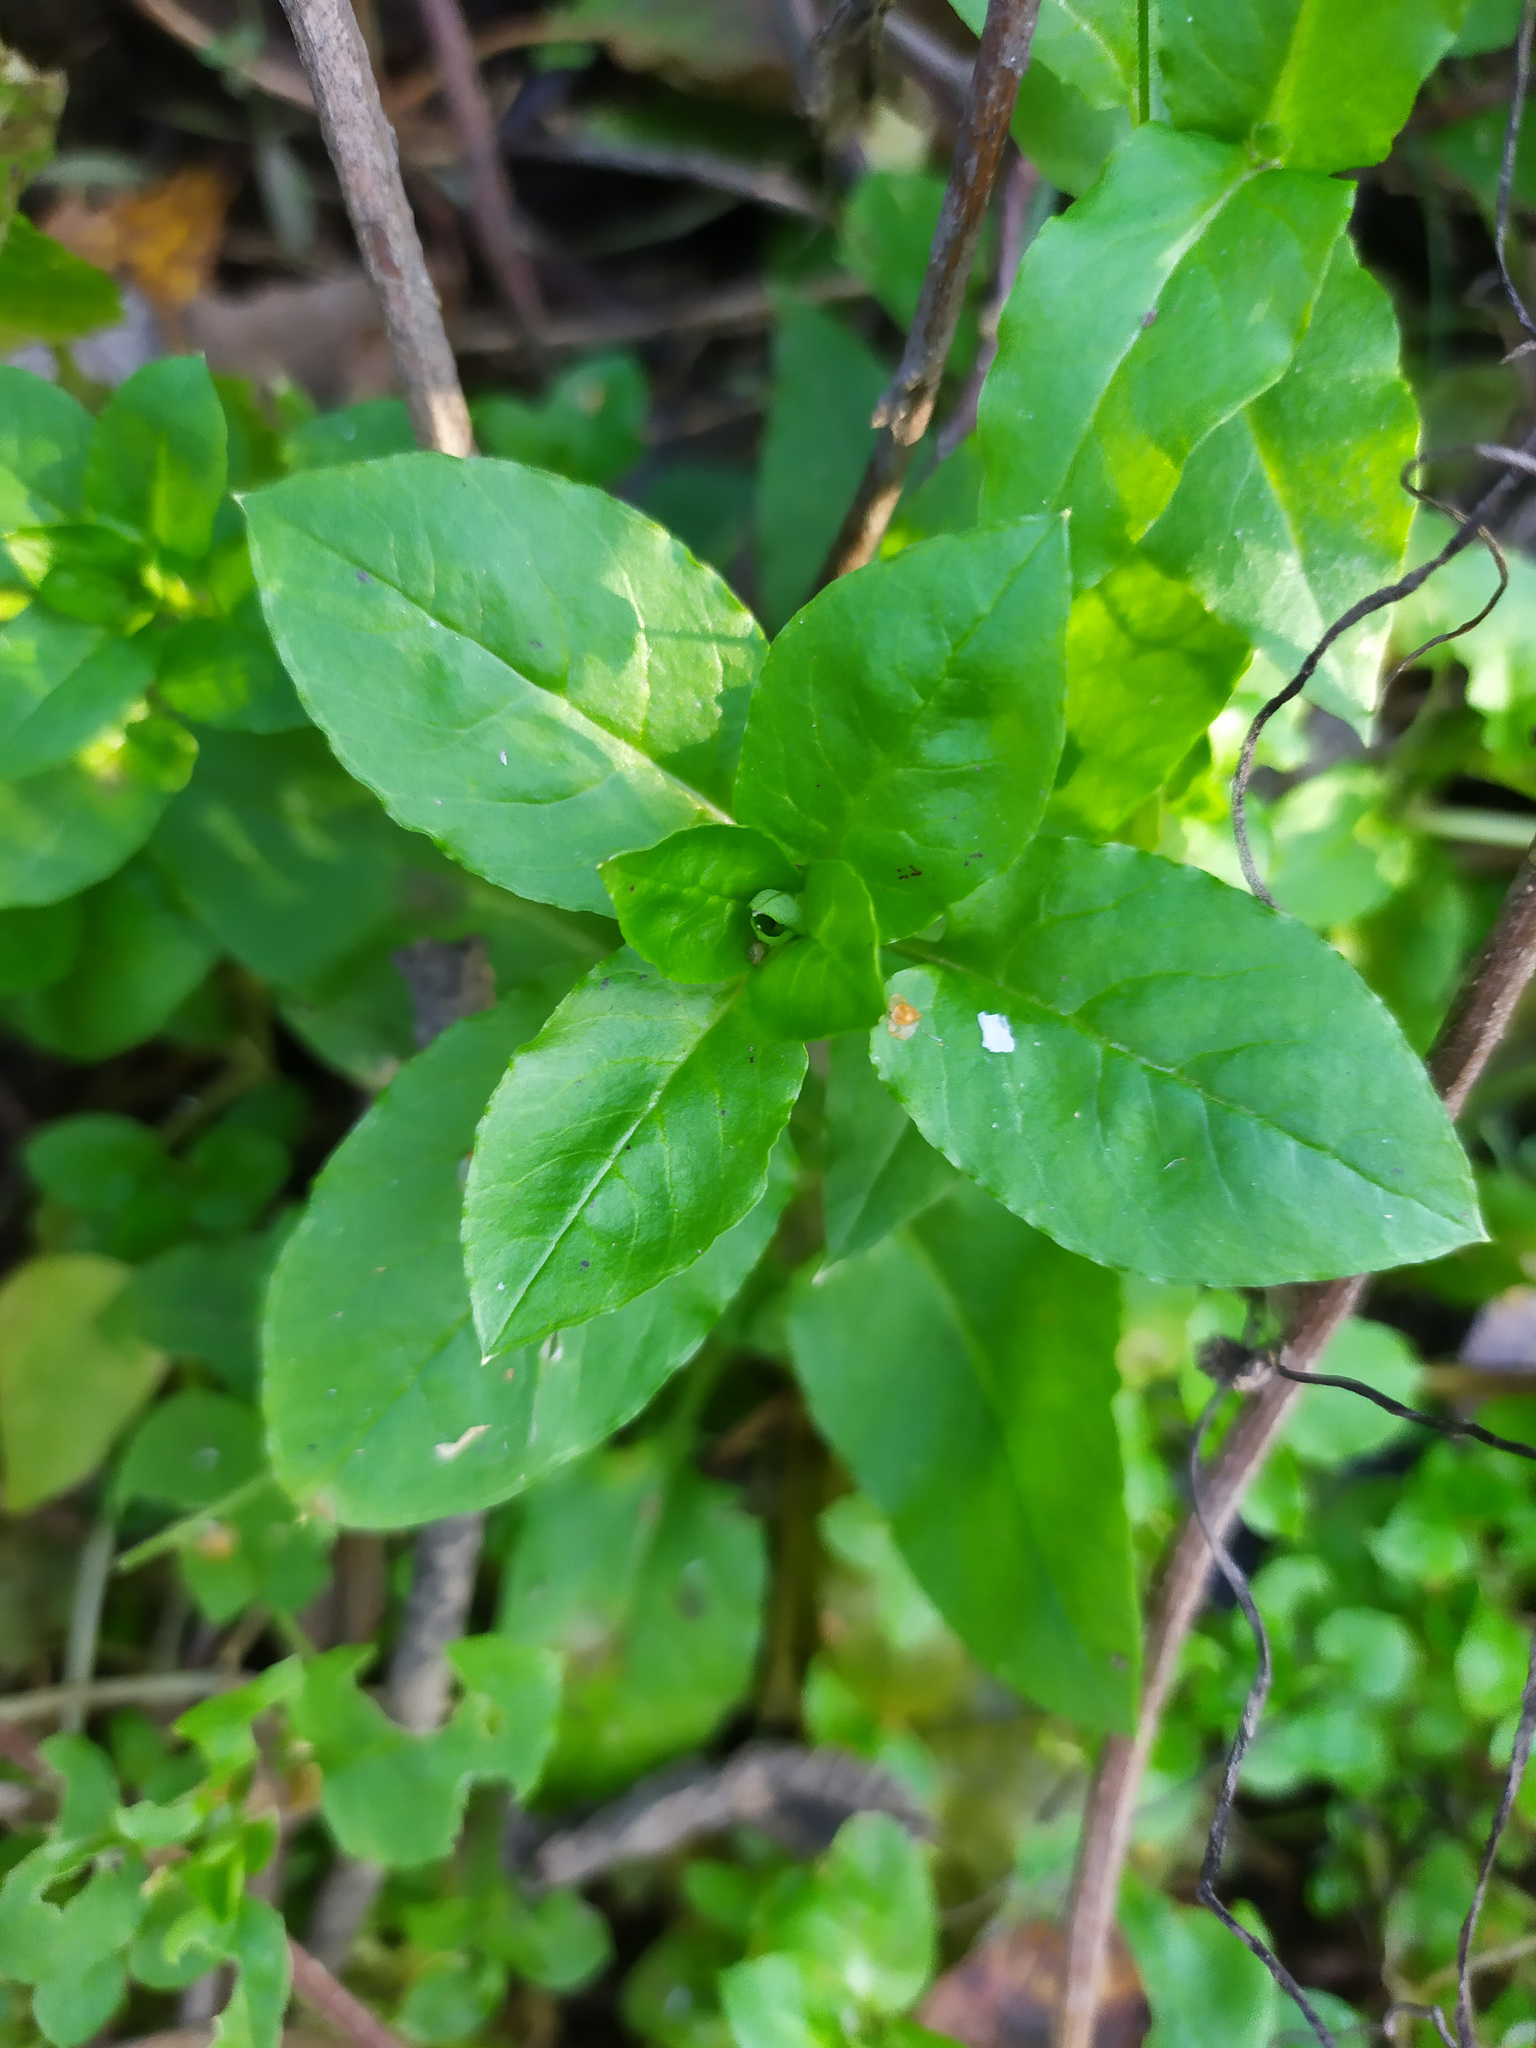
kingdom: Plantae
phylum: Tracheophyta
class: Magnoliopsida
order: Caryophyllales
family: Caryophyllaceae
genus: Stellaria
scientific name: Stellaria aquatica
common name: Water chickweed
